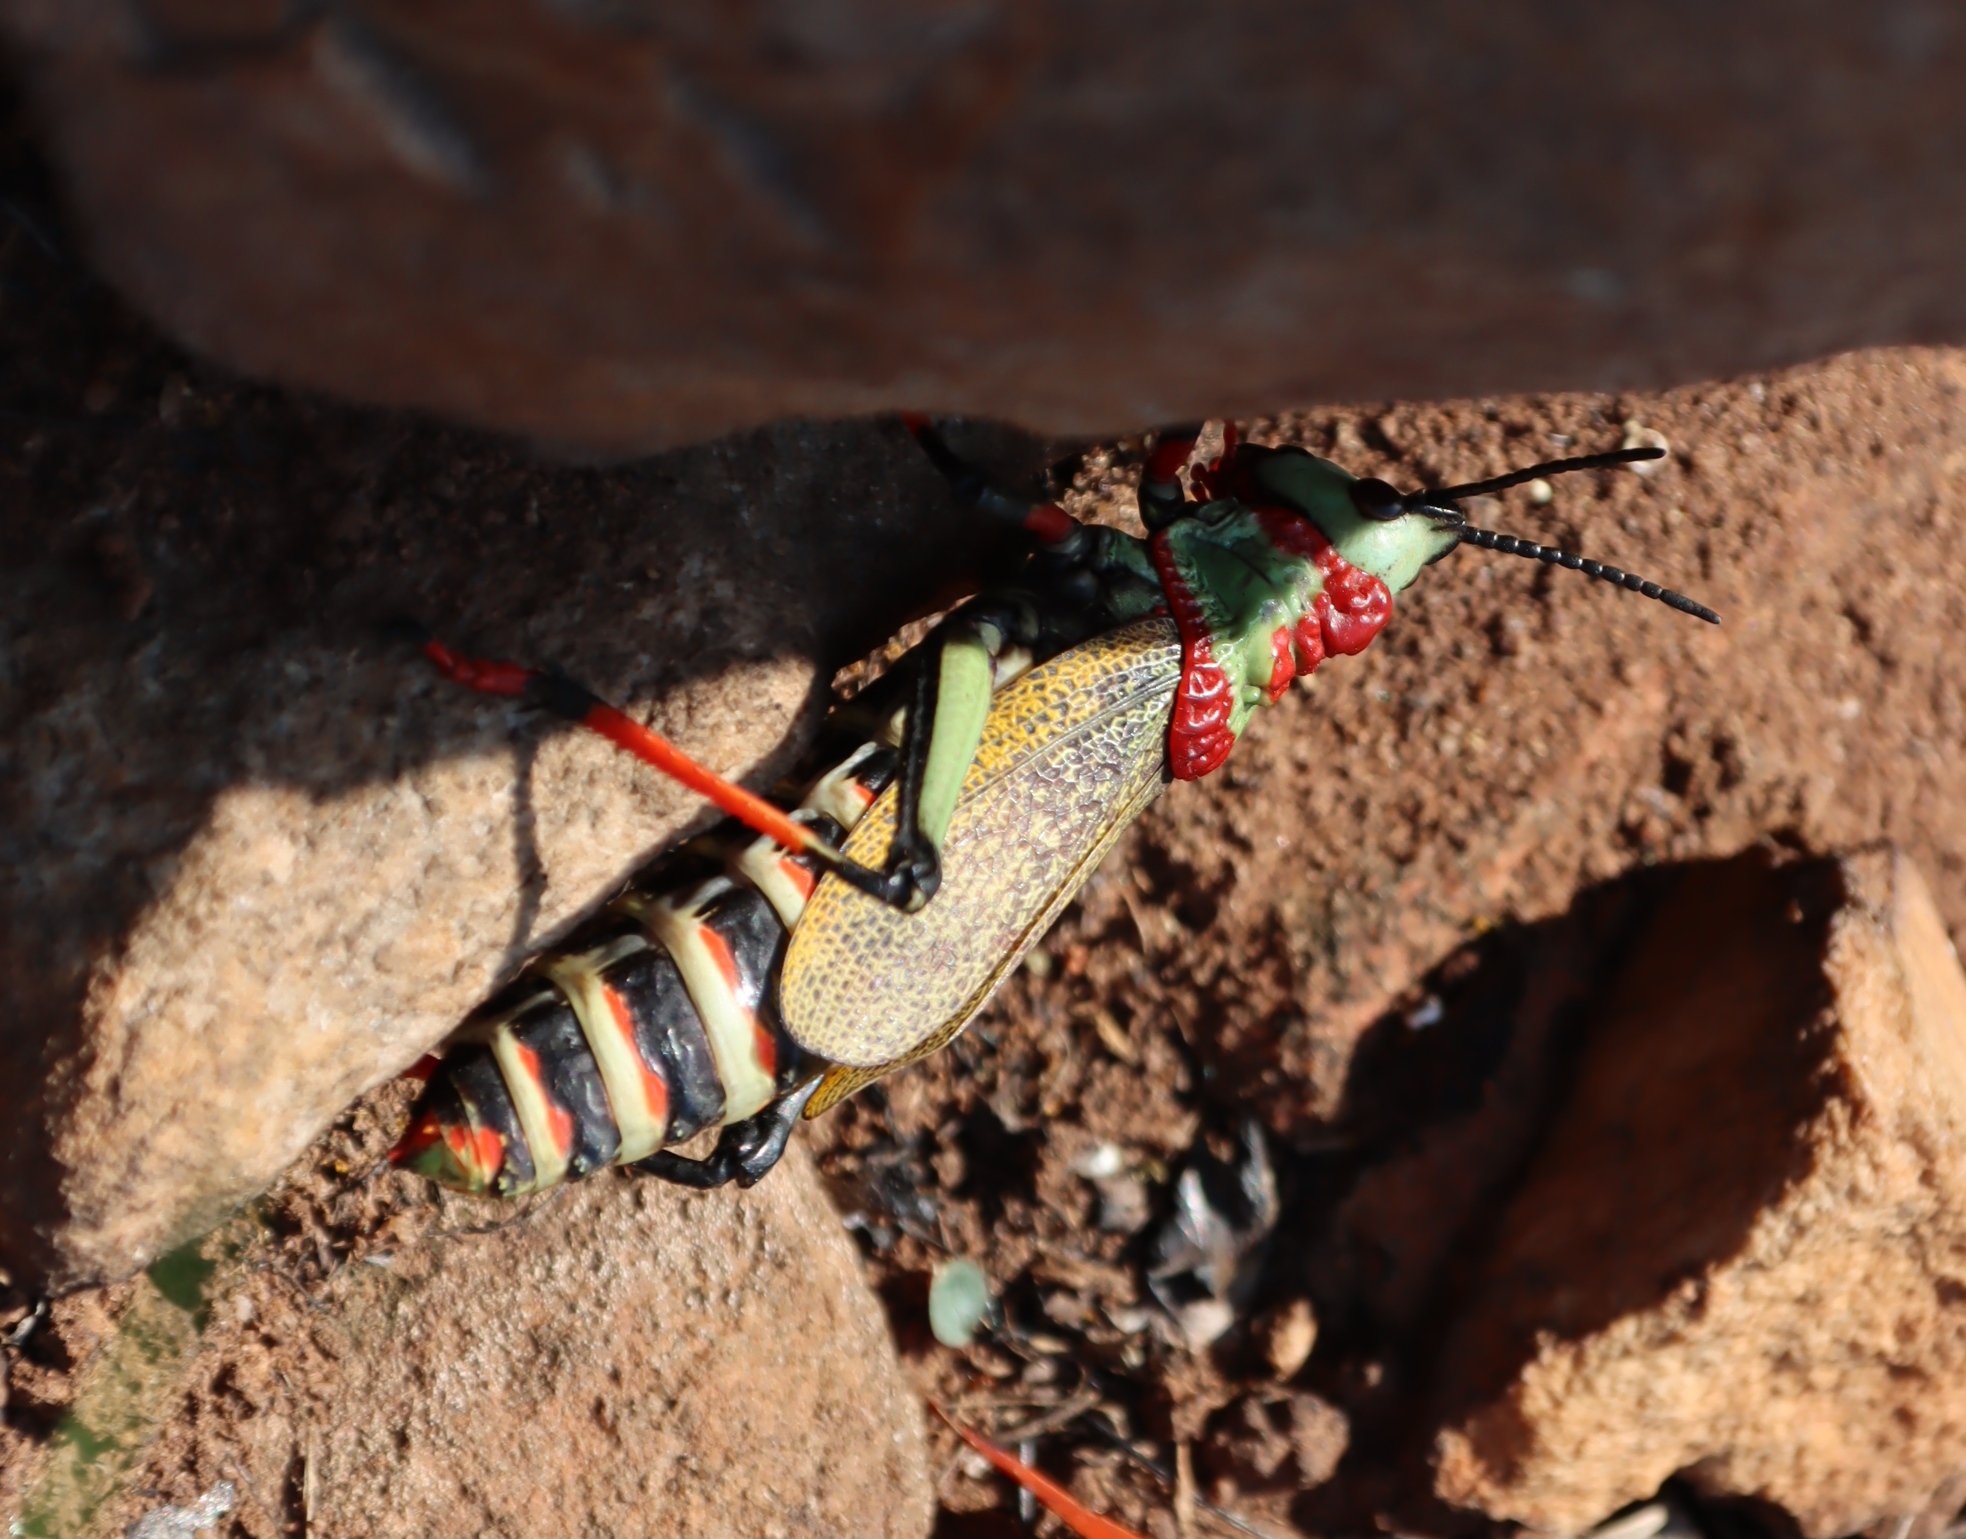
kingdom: Animalia
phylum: Arthropoda
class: Insecta
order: Orthoptera
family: Pyrgomorphidae
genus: Dictyophorus
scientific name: Dictyophorus spumans
